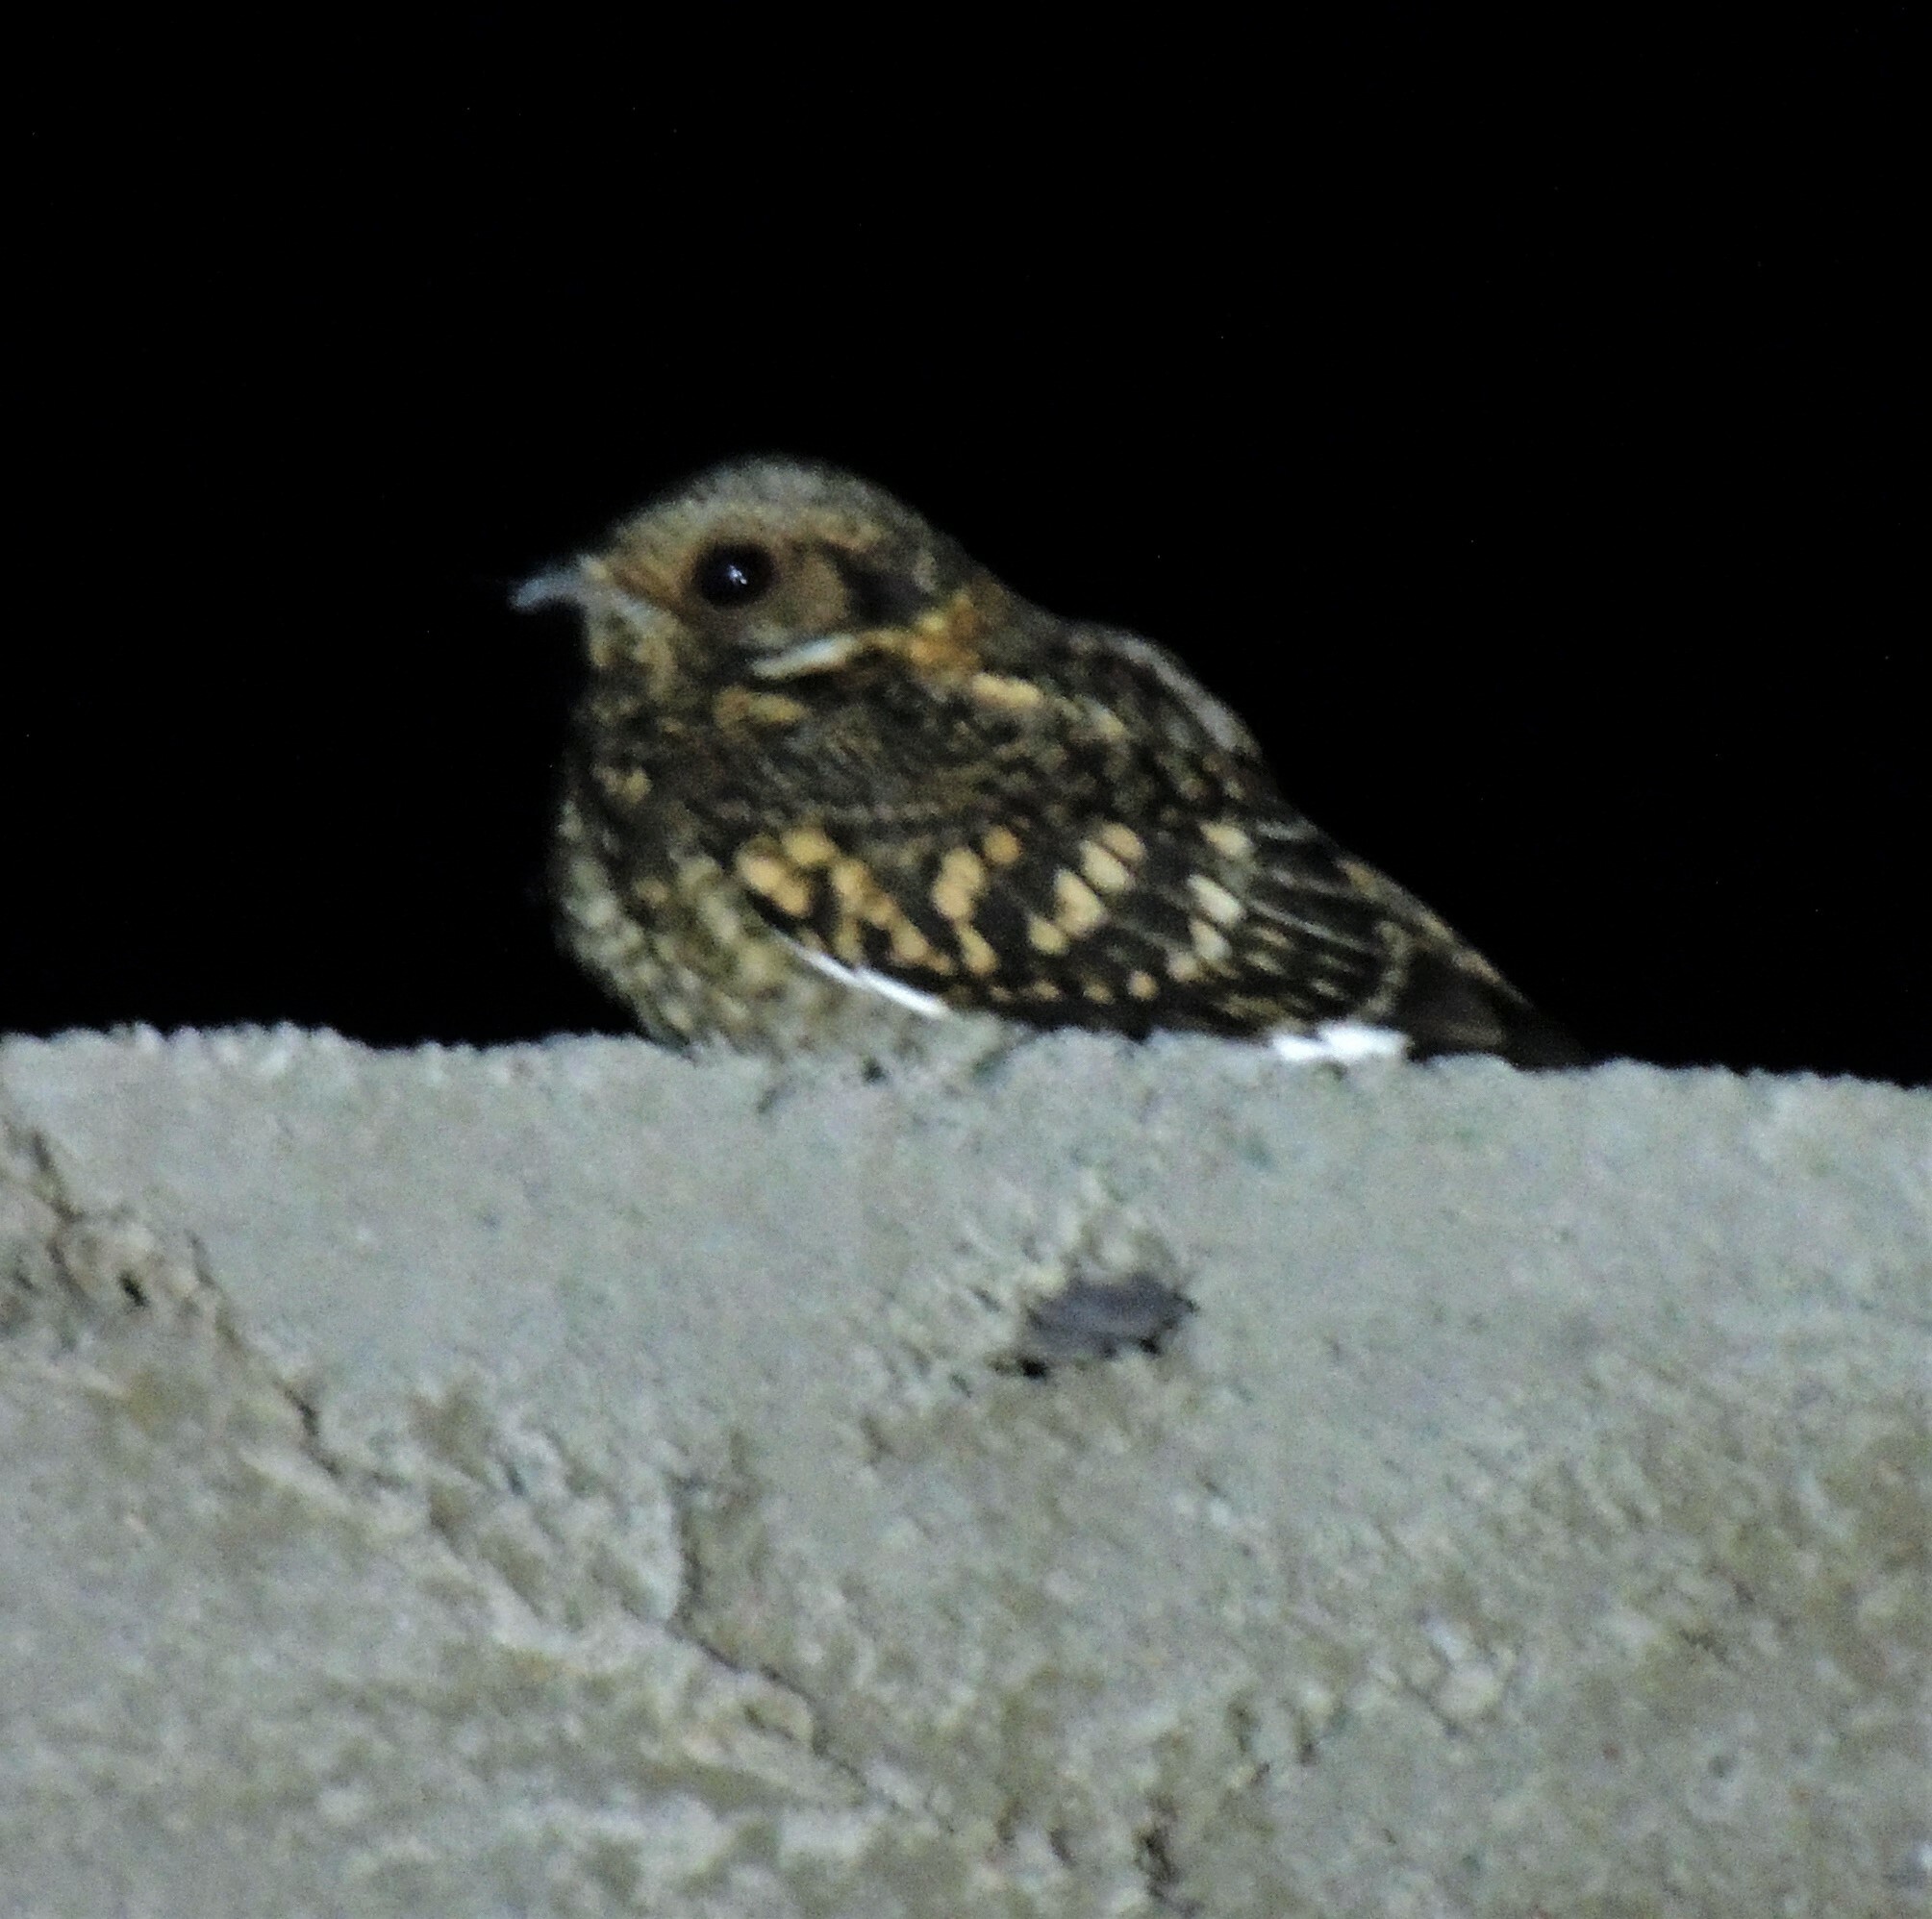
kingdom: Animalia
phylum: Chordata
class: Aves
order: Caprimulgiformes
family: Caprimulgidae
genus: Systellura
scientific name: Systellura longirostris
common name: Band-winged nightjar
